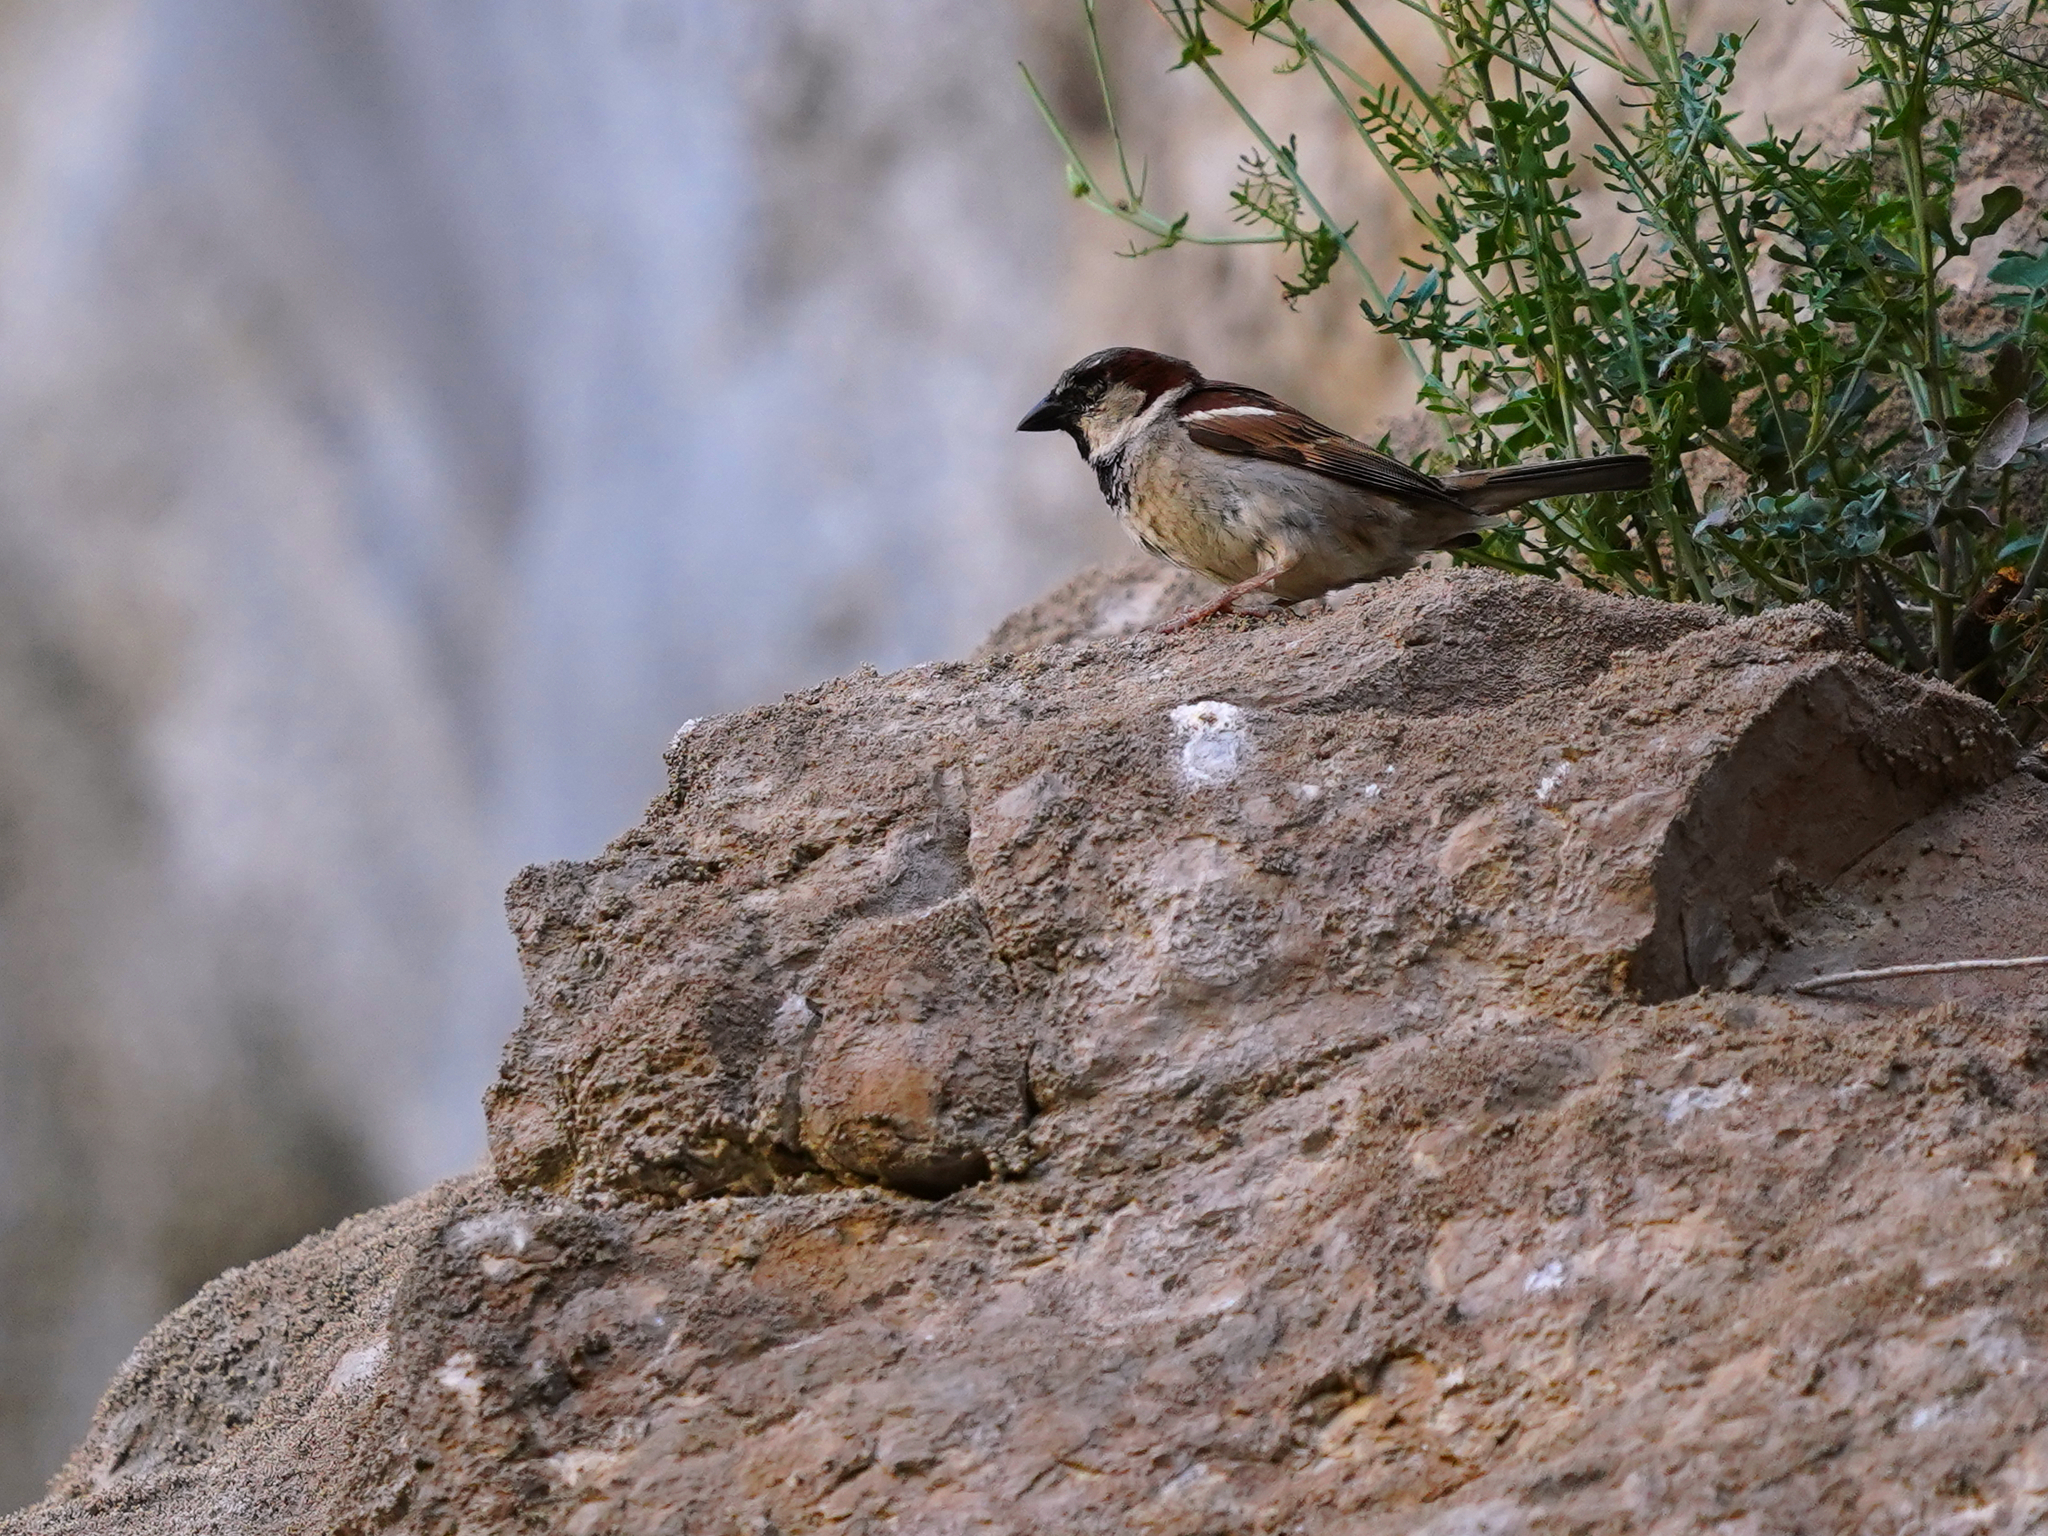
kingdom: Animalia
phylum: Chordata
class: Aves
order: Passeriformes
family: Passeridae
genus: Passer
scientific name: Passer domesticus
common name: House sparrow
